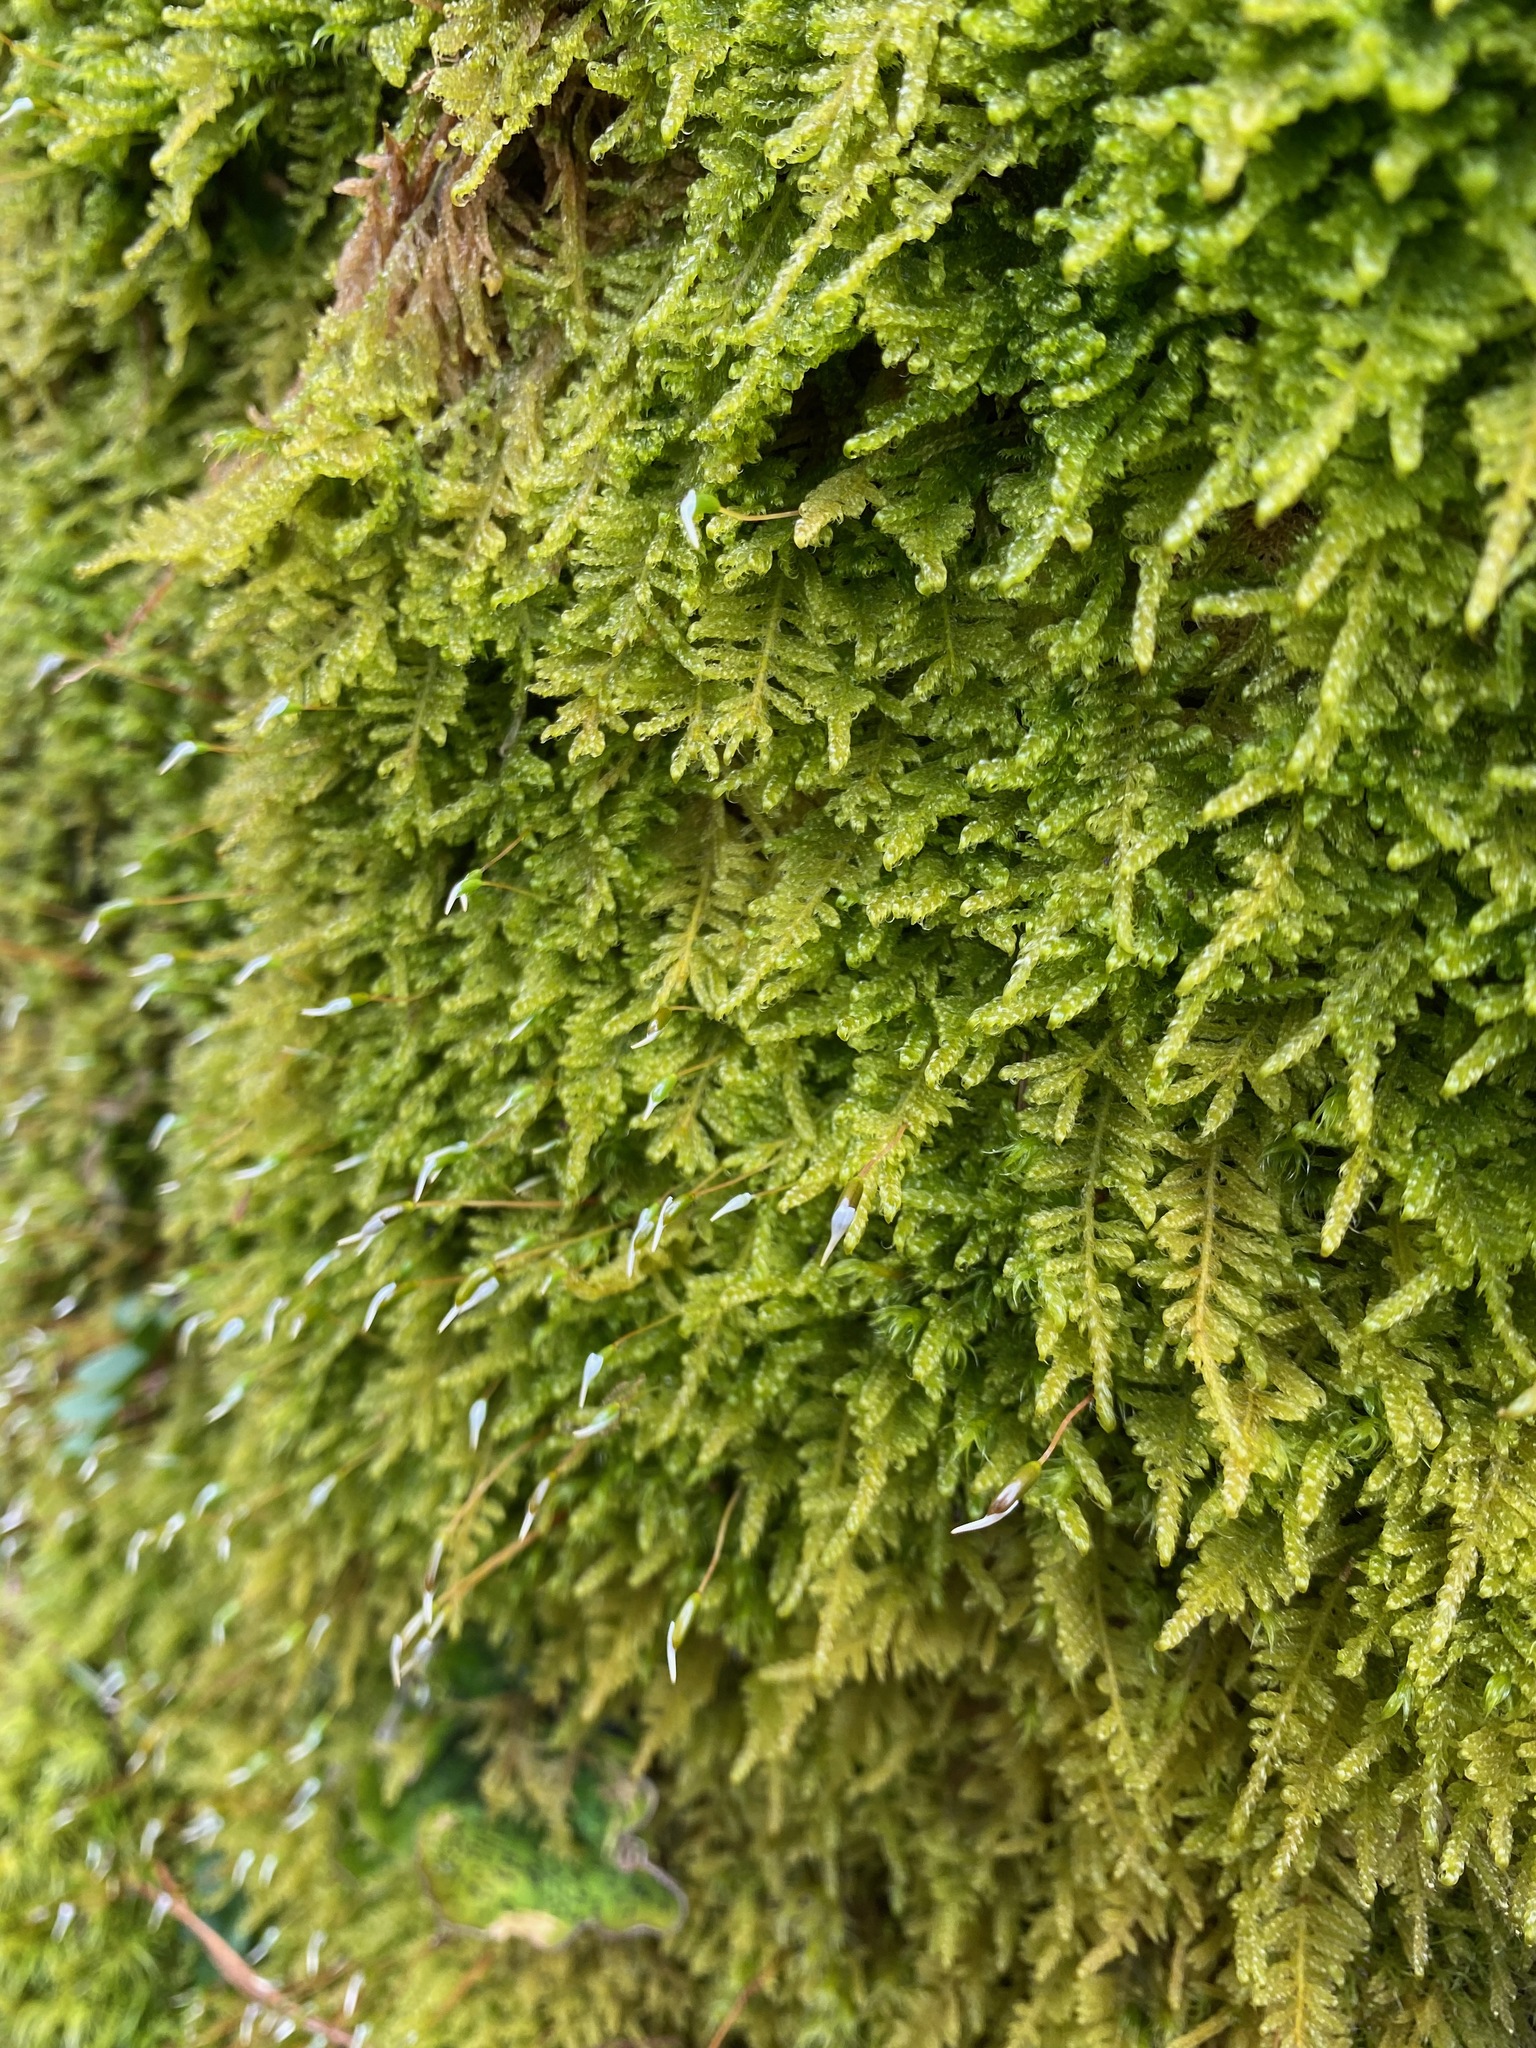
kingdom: Plantae
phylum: Bryophyta
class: Bryopsida
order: Hypnales
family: Stereodontaceae
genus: Stereodon
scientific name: Stereodon subimponens
